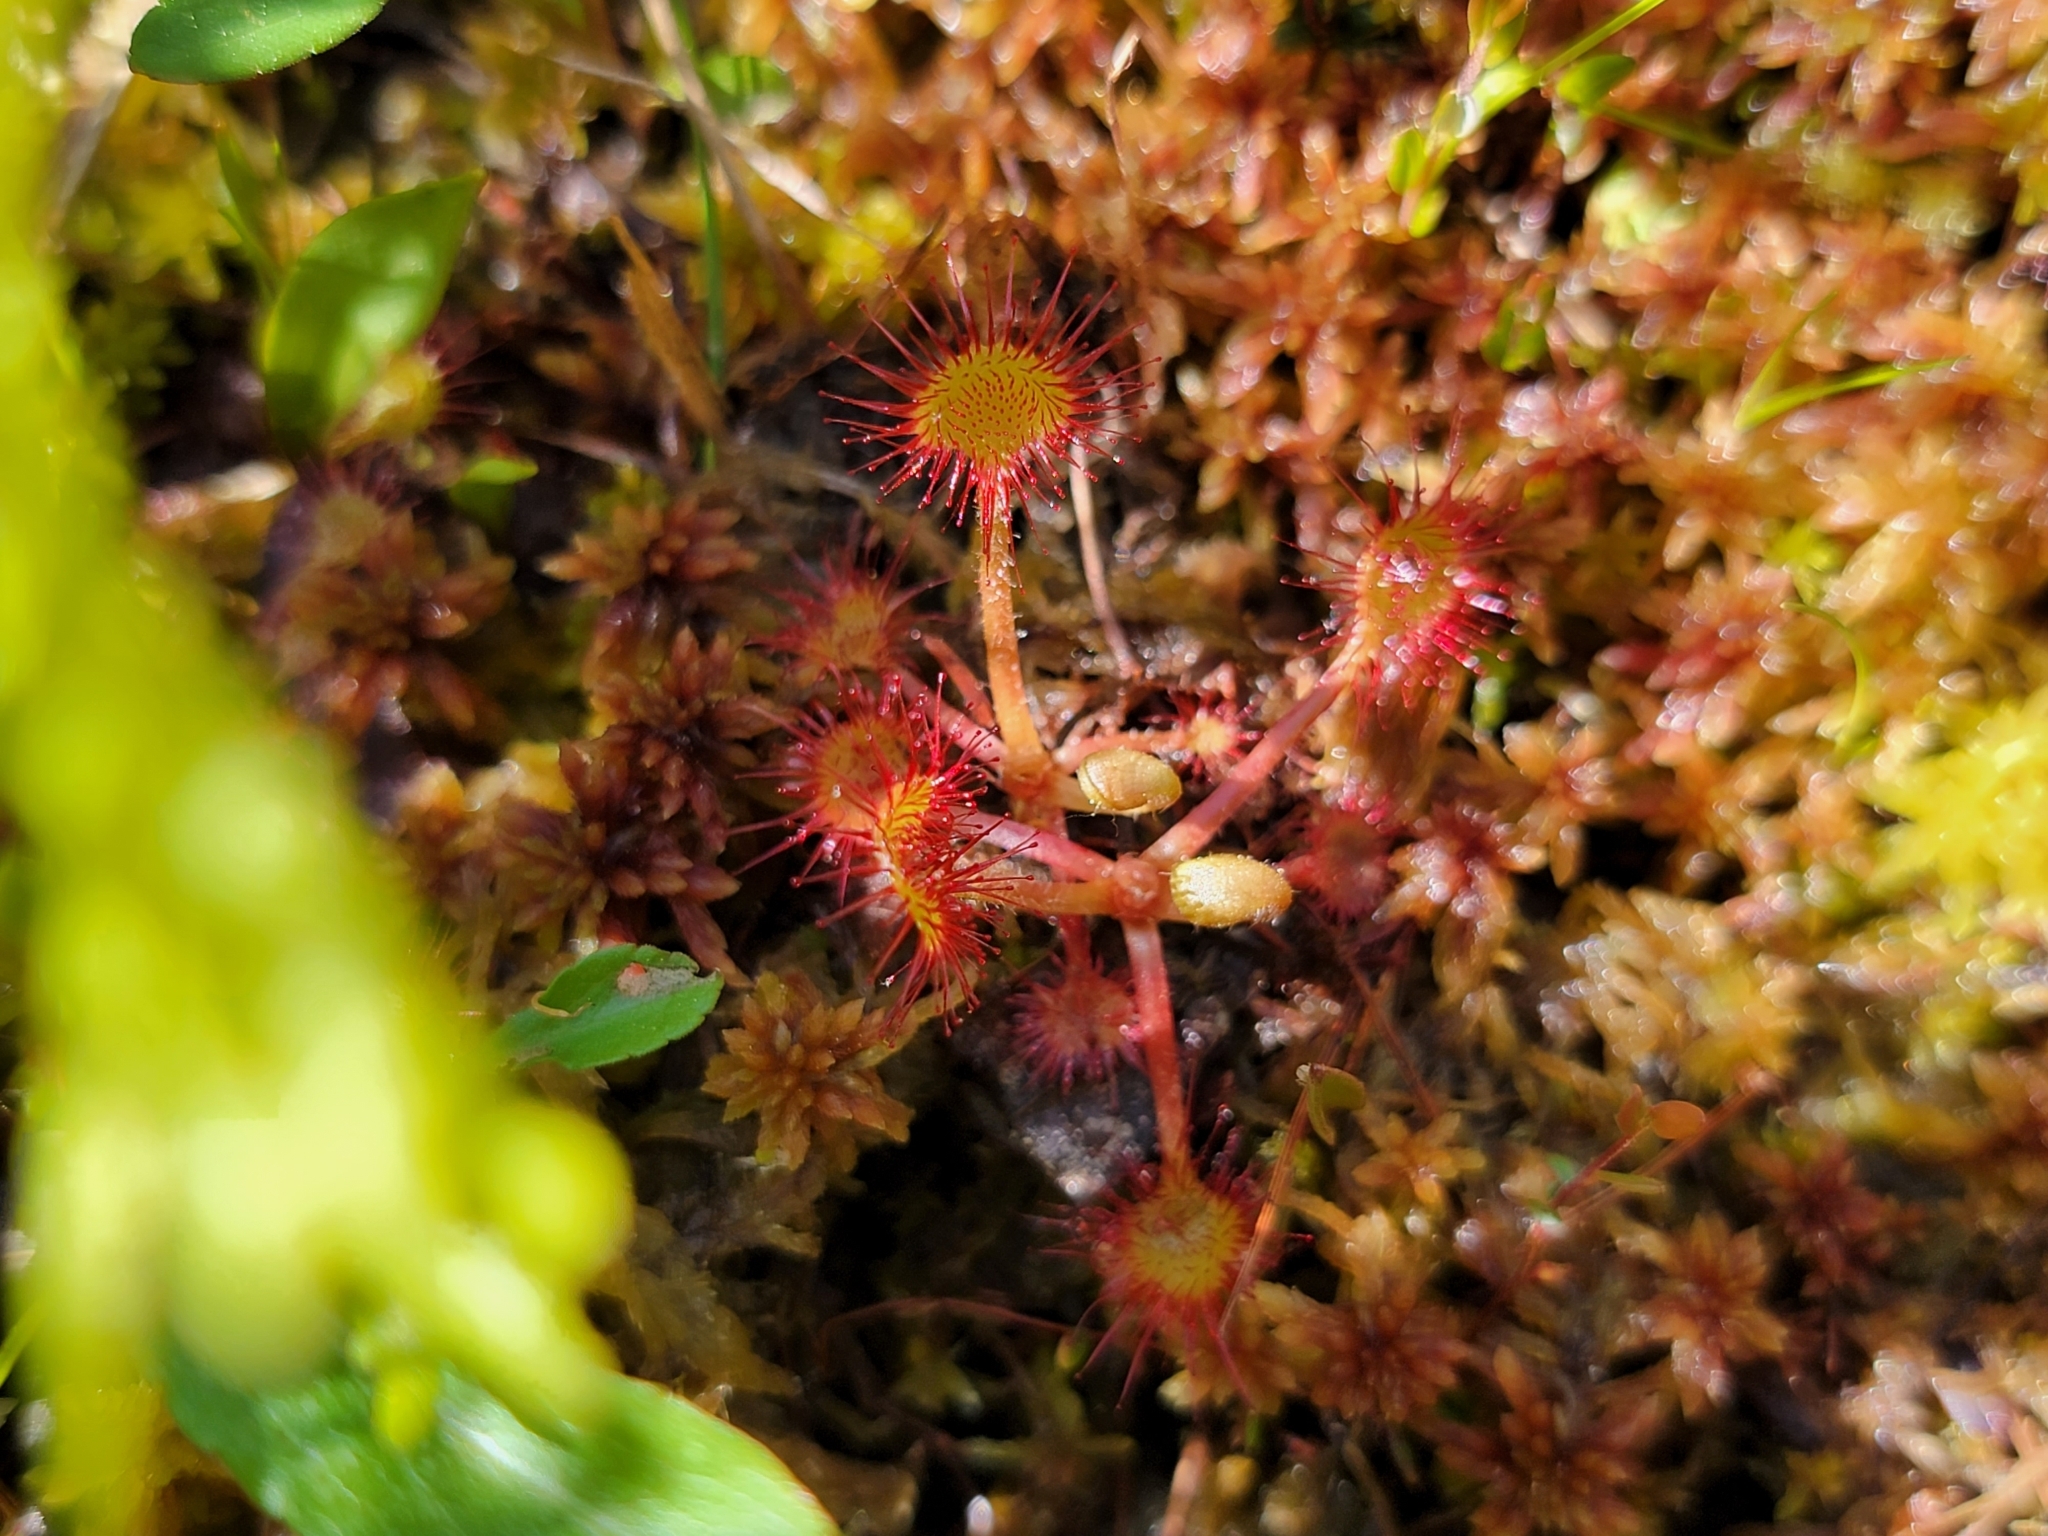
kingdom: Plantae
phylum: Tracheophyta
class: Magnoliopsida
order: Caryophyllales
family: Droseraceae
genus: Drosera
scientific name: Drosera rotundifolia
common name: Round-leaved sundew
